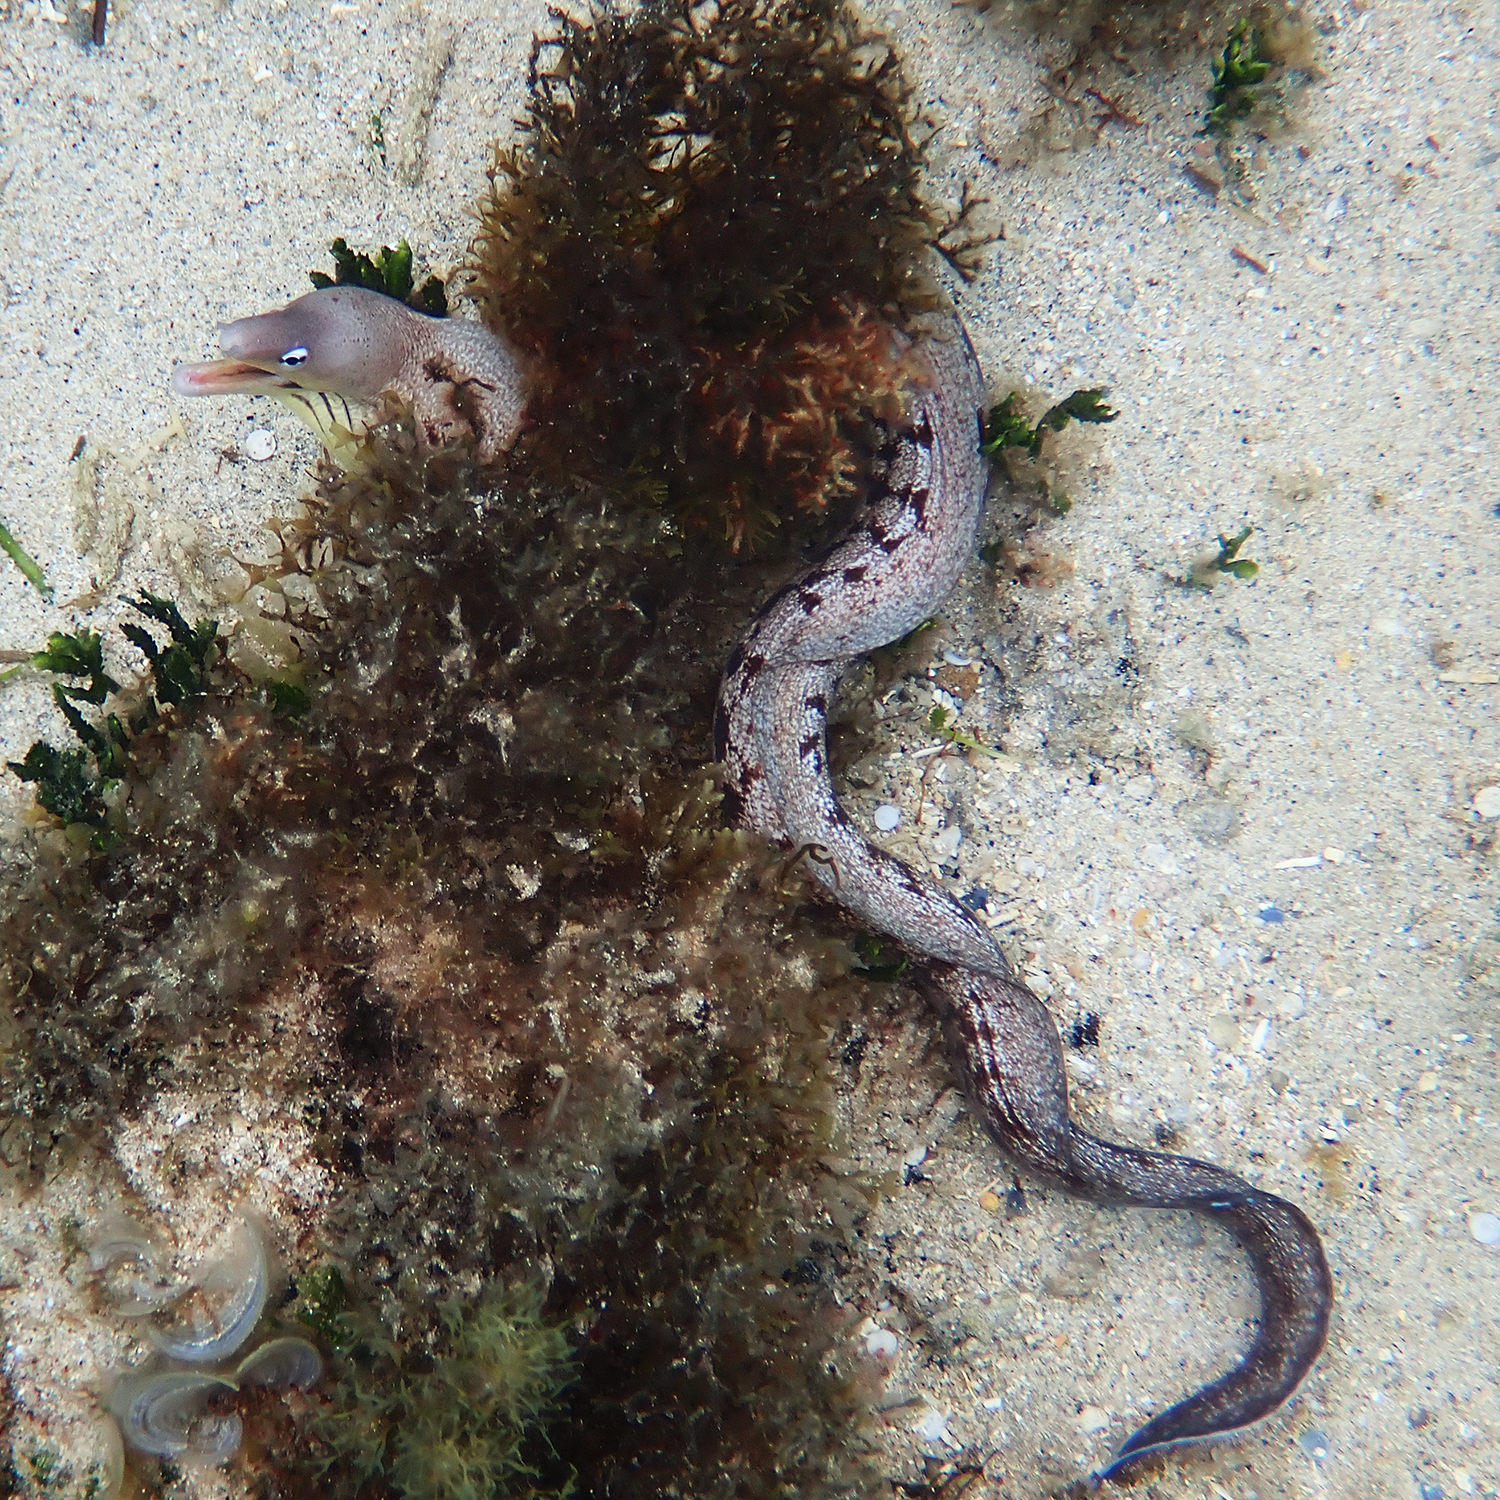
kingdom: Animalia
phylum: Chordata
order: Anguilliformes
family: Muraenidae
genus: Gymnothorax
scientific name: Gymnothorax nubilus
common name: Grey moray
